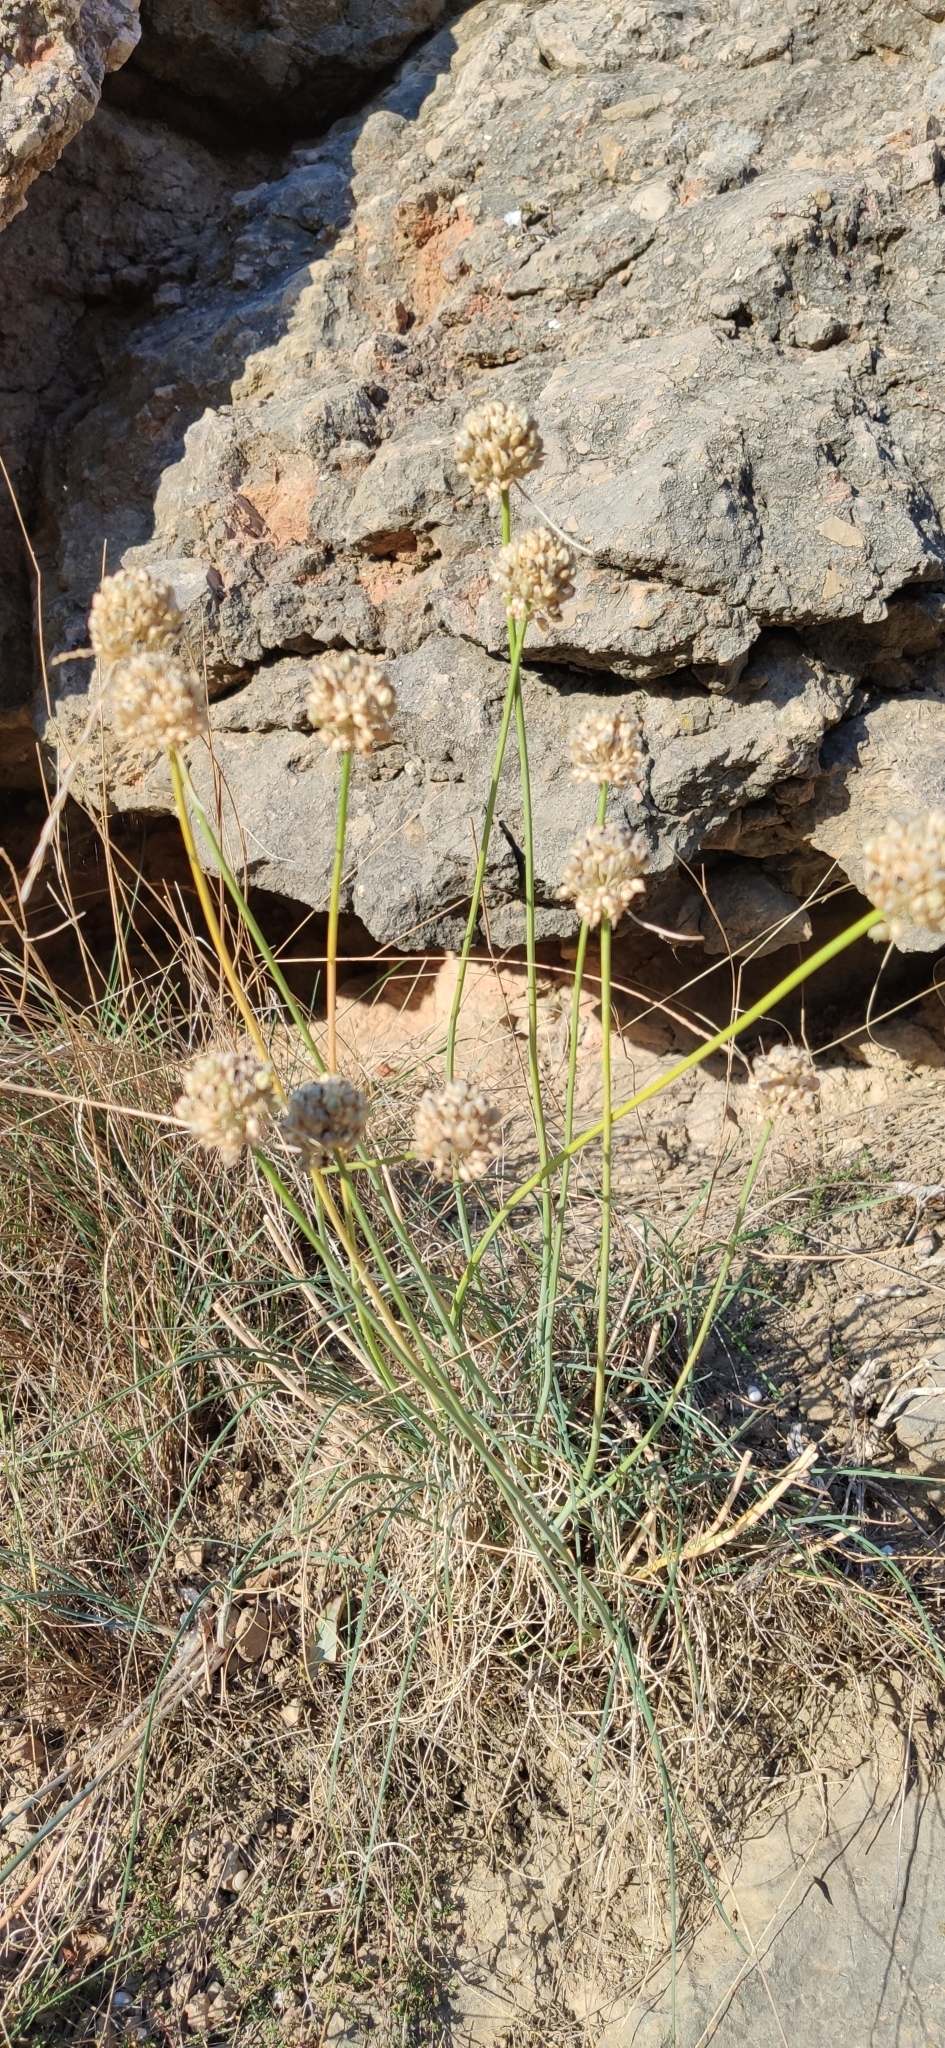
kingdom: Plantae
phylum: Tracheophyta
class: Liliopsida
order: Asparagales
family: Amaryllidaceae
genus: Allium
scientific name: Allium marschallianum
